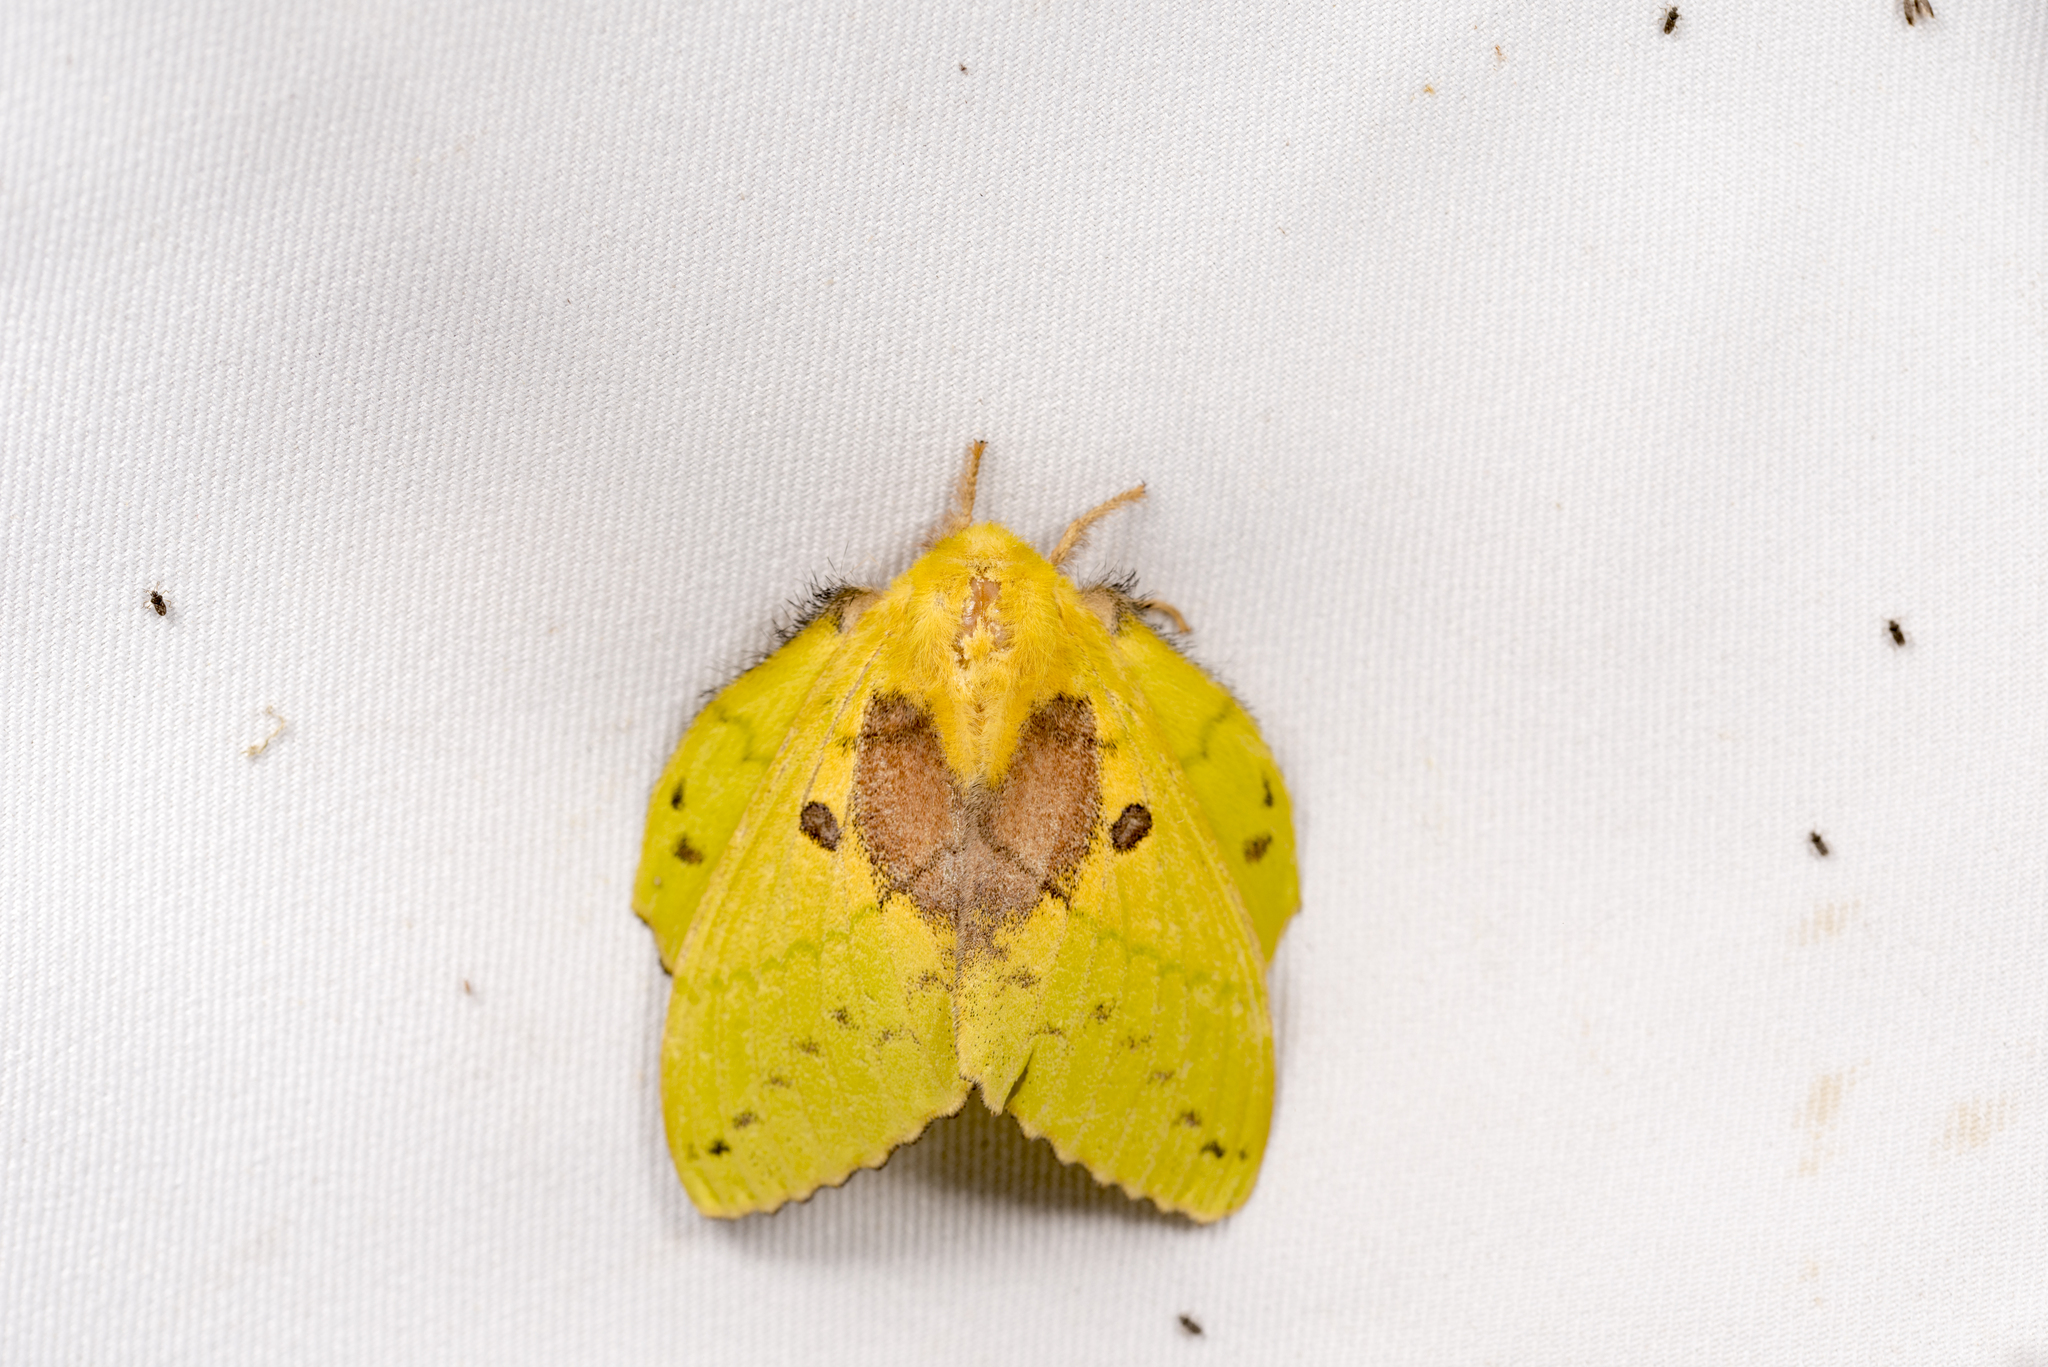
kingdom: Animalia
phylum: Arthropoda
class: Insecta
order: Lepidoptera
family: Lasiocampidae
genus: Trabala
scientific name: Trabala vishnou
